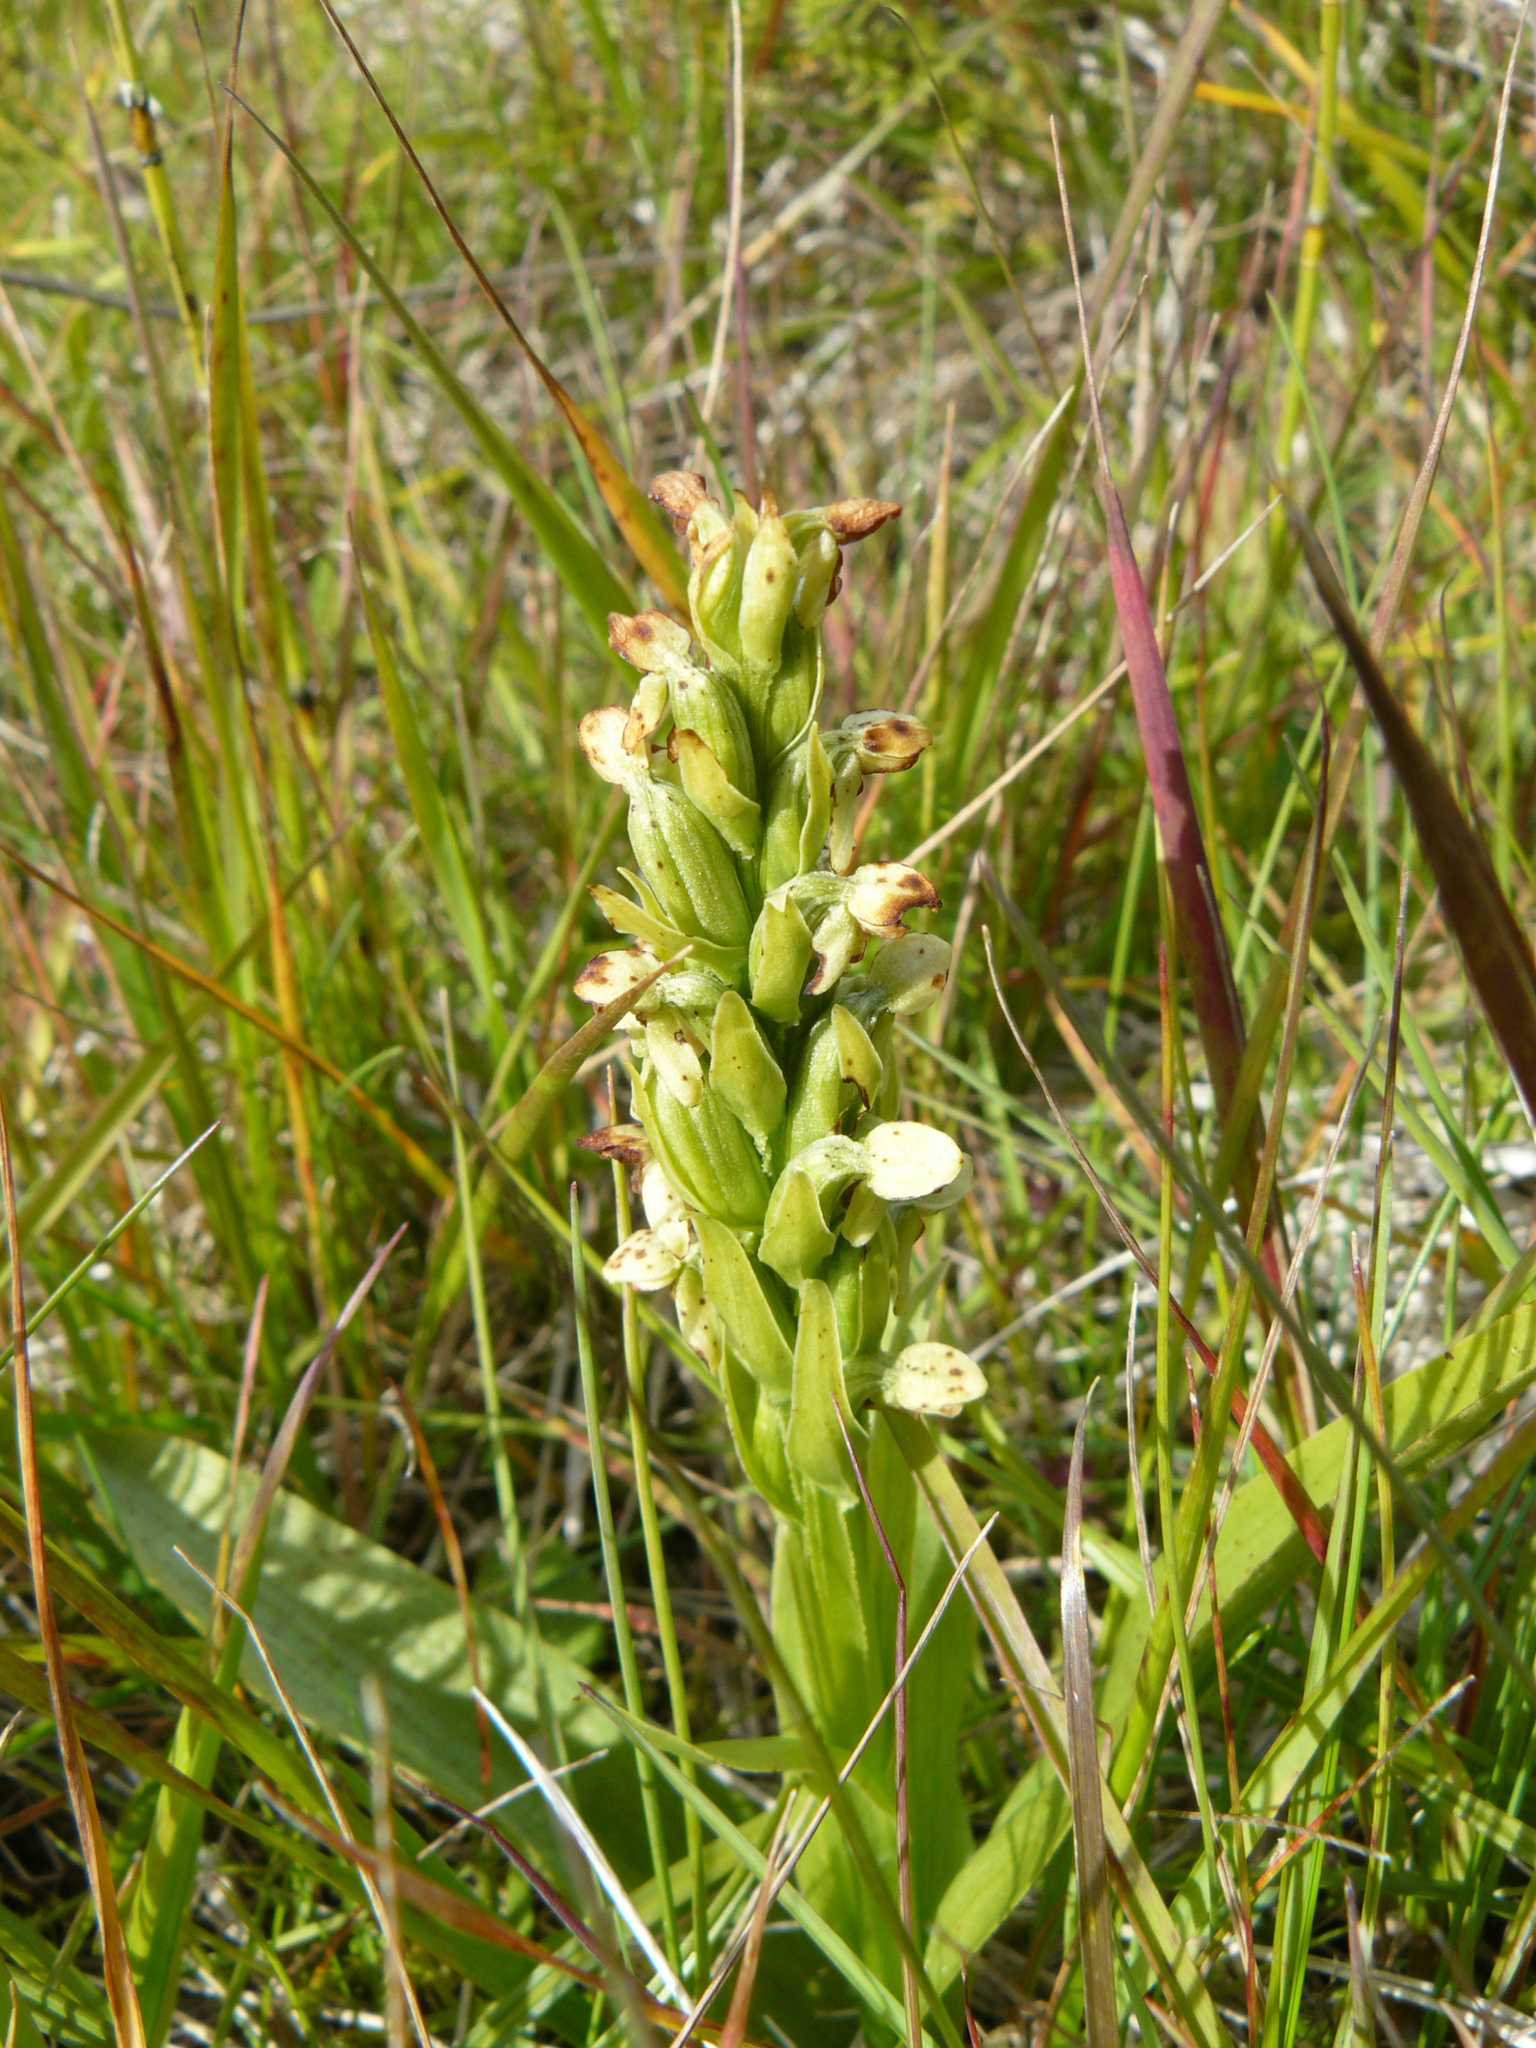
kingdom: Plantae
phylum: Tracheophyta
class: Liliopsida
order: Asparagales
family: Orchidaceae
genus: Platanthera
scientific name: Platanthera hyperborea
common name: Northern green orchid
